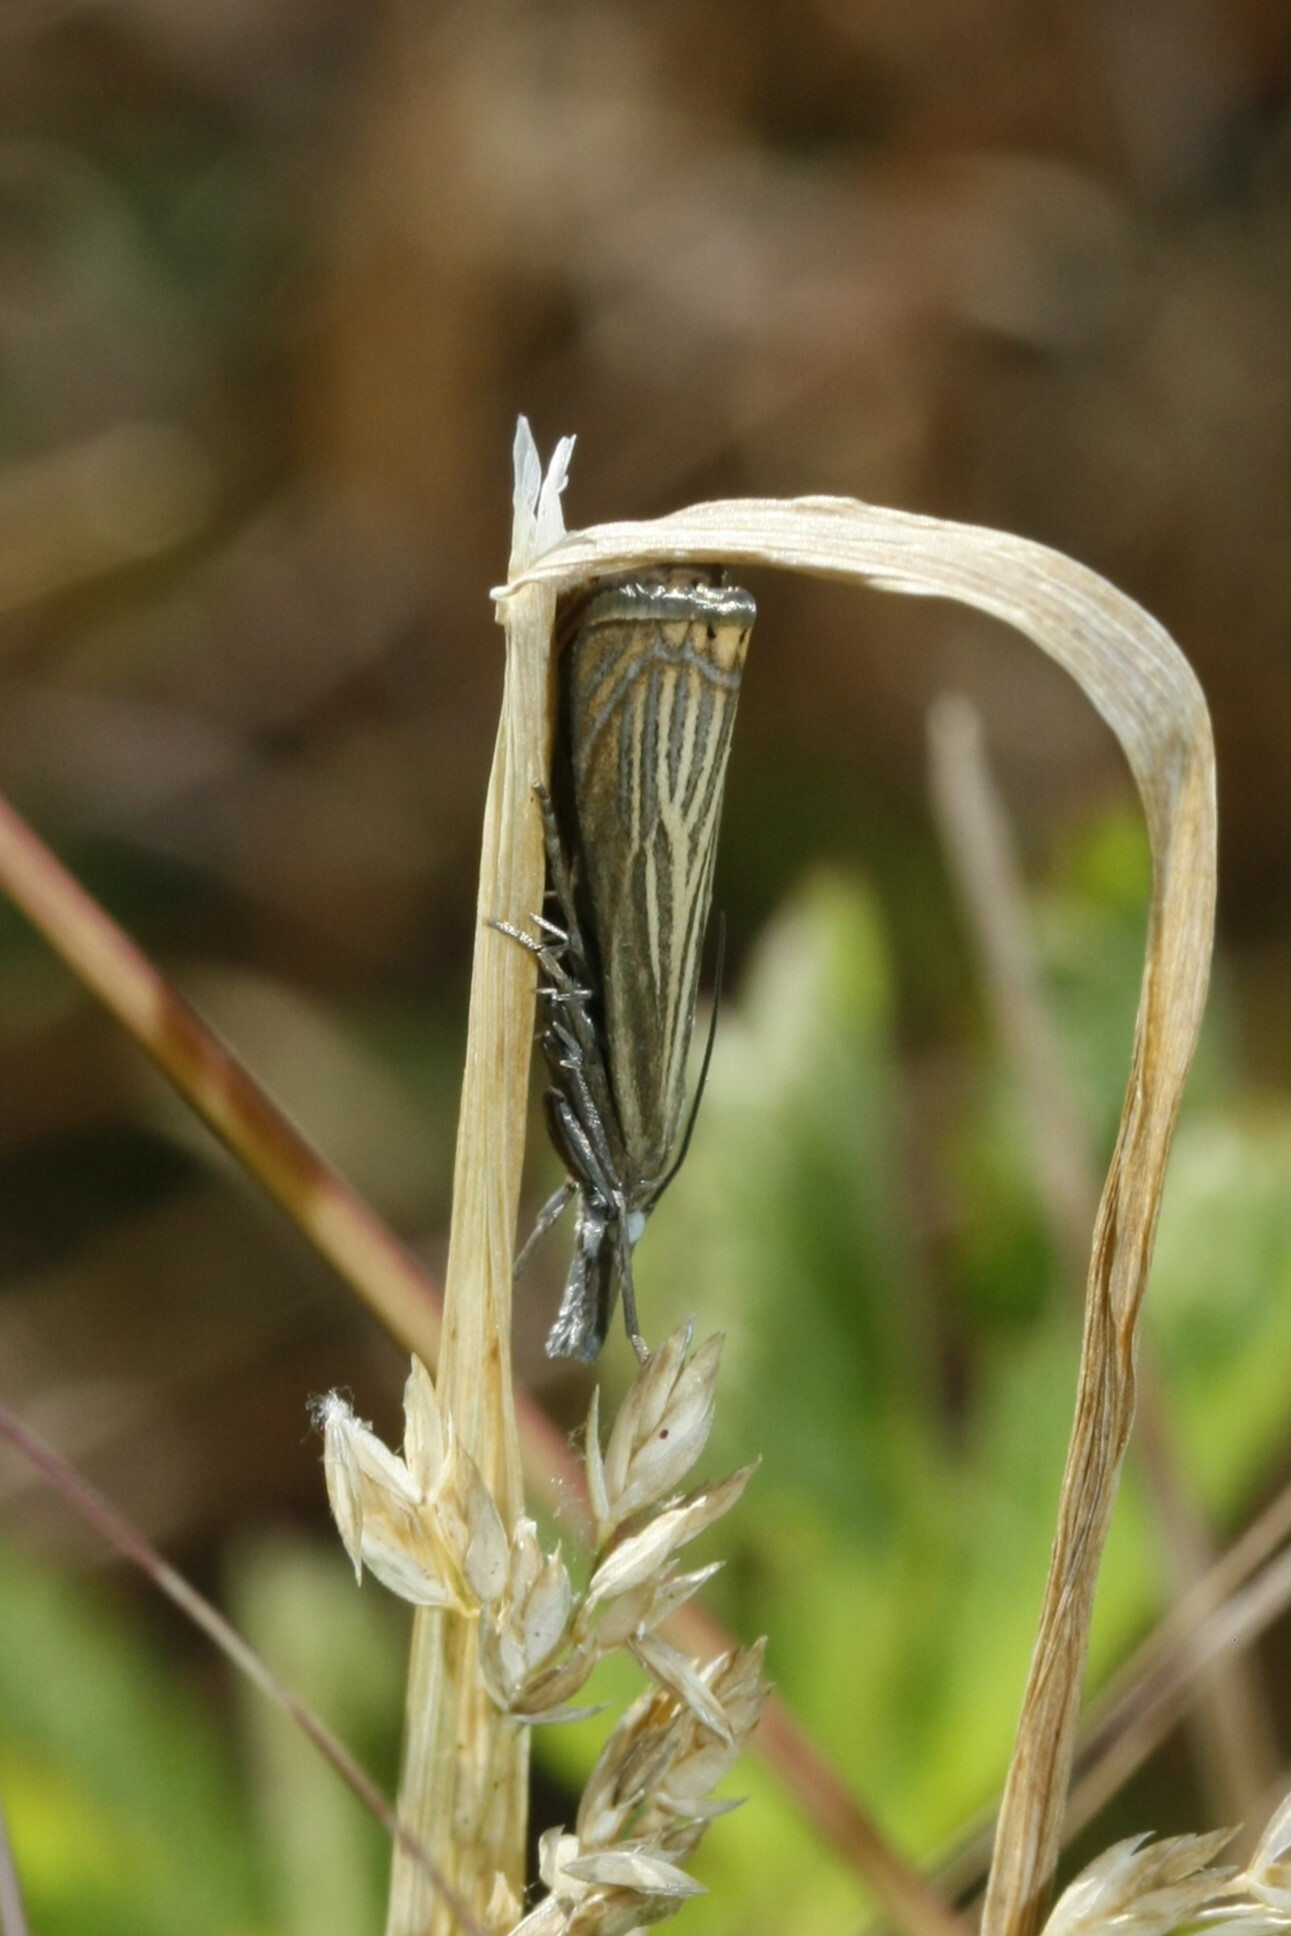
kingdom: Animalia
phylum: Arthropoda
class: Insecta
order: Lepidoptera
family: Crambidae
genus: Chrysoteuchia
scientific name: Chrysoteuchia culmella
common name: Garden grass-veneer
